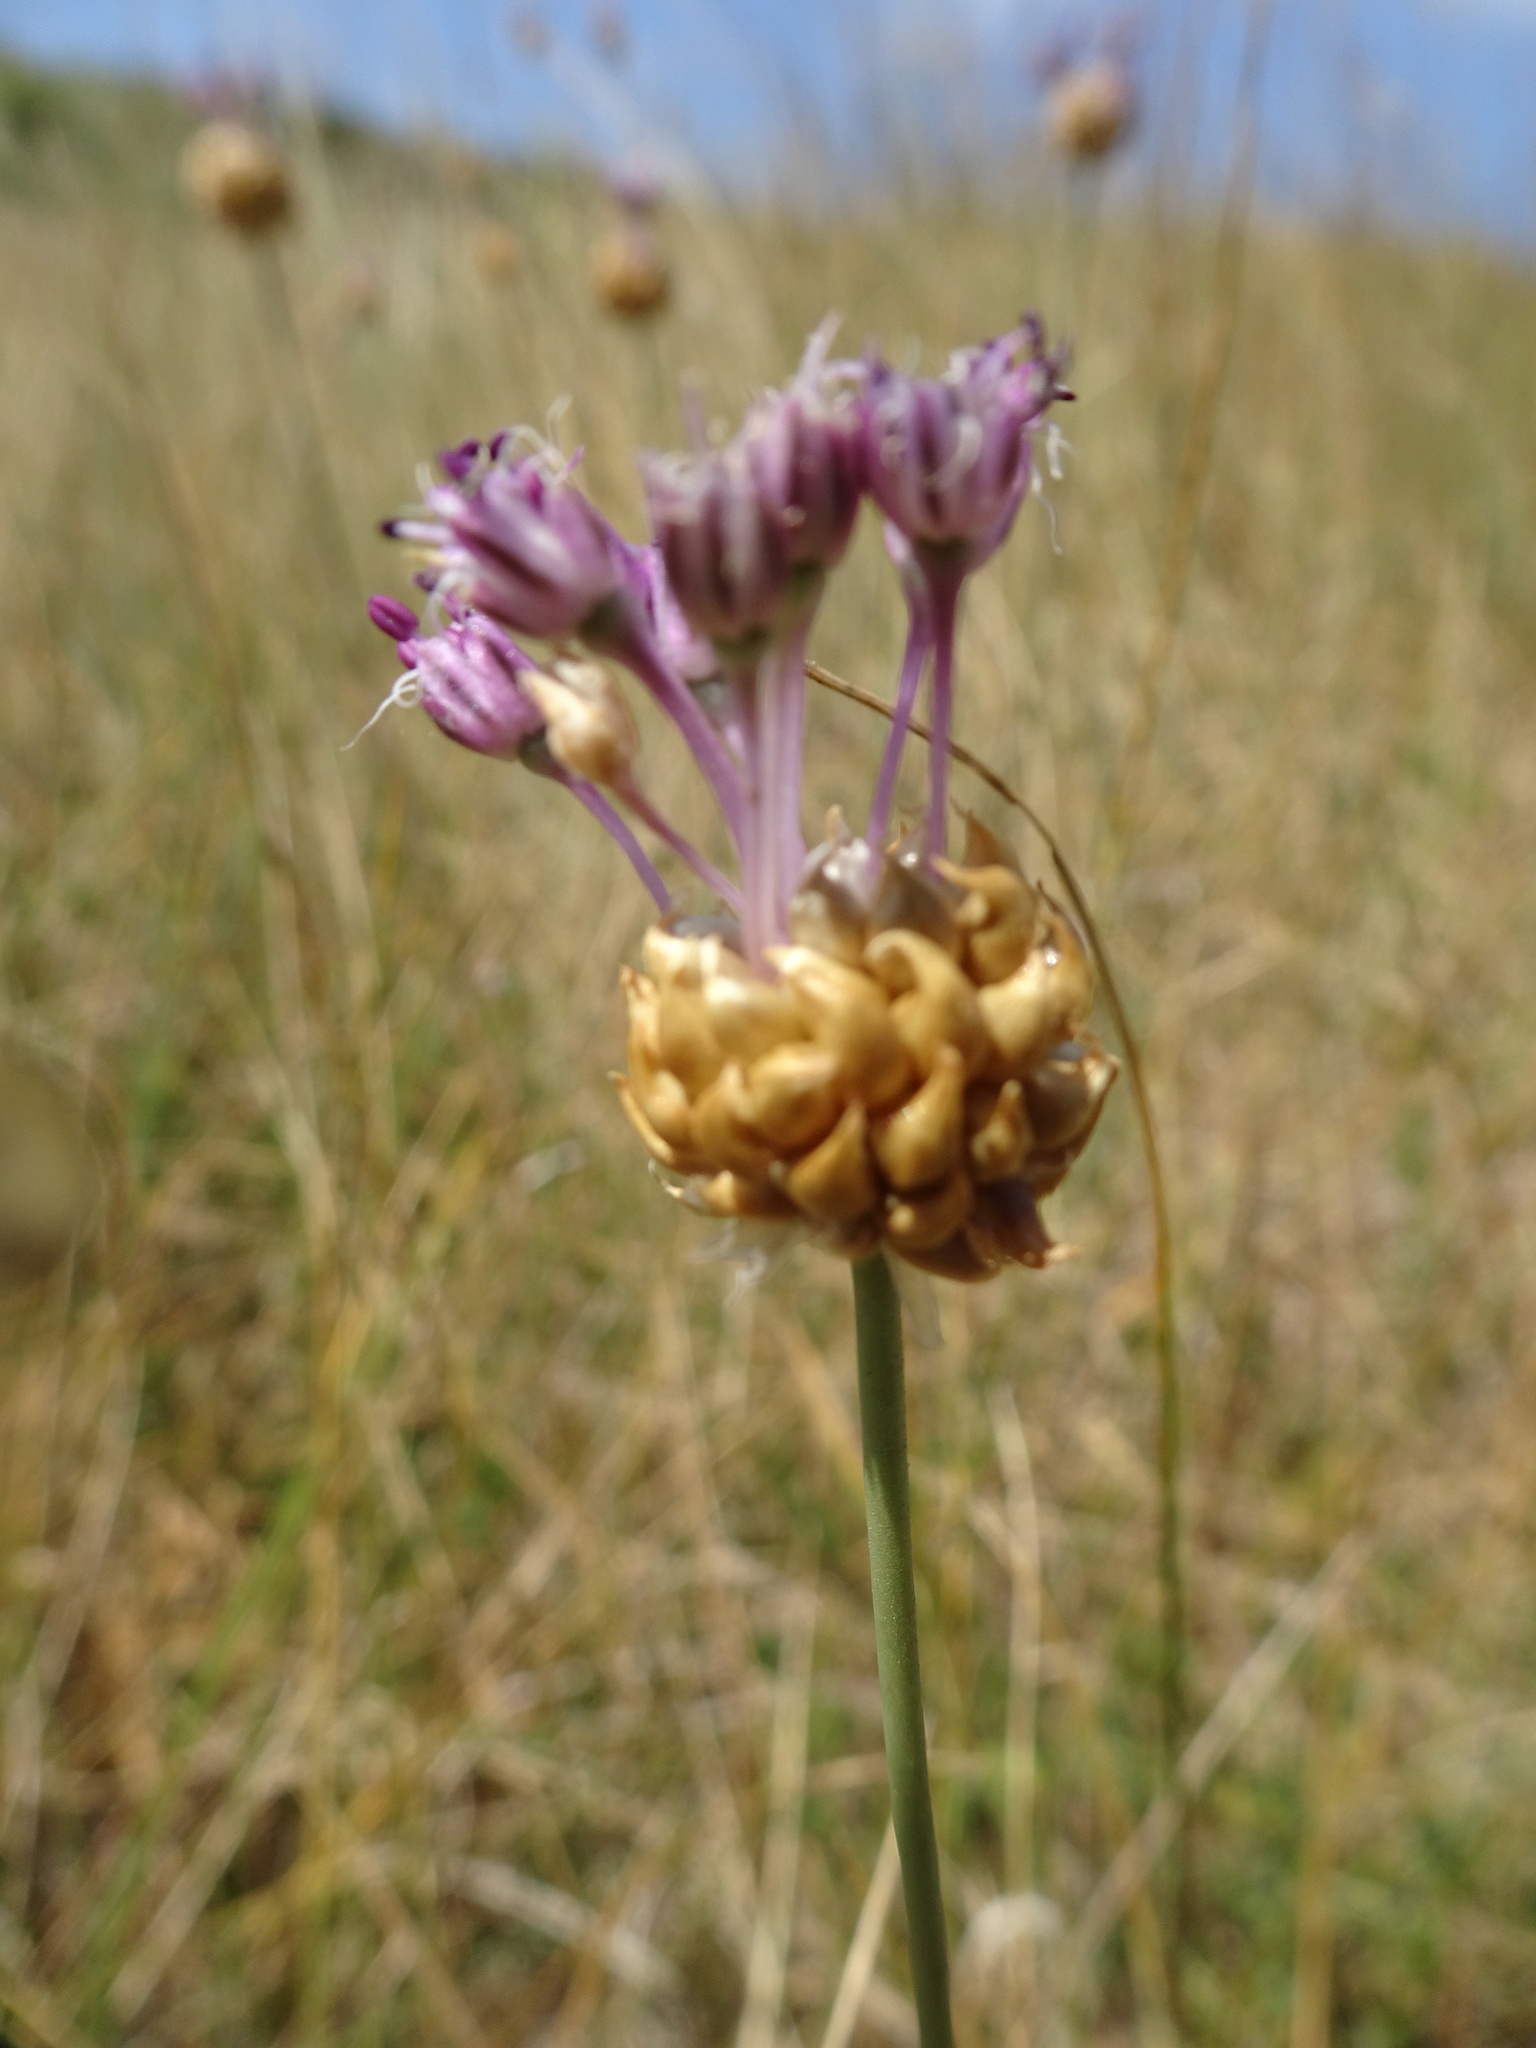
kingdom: Plantae
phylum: Tracheophyta
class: Liliopsida
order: Asparagales
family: Amaryllidaceae
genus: Allium
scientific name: Allium vineale
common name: Crow garlic
